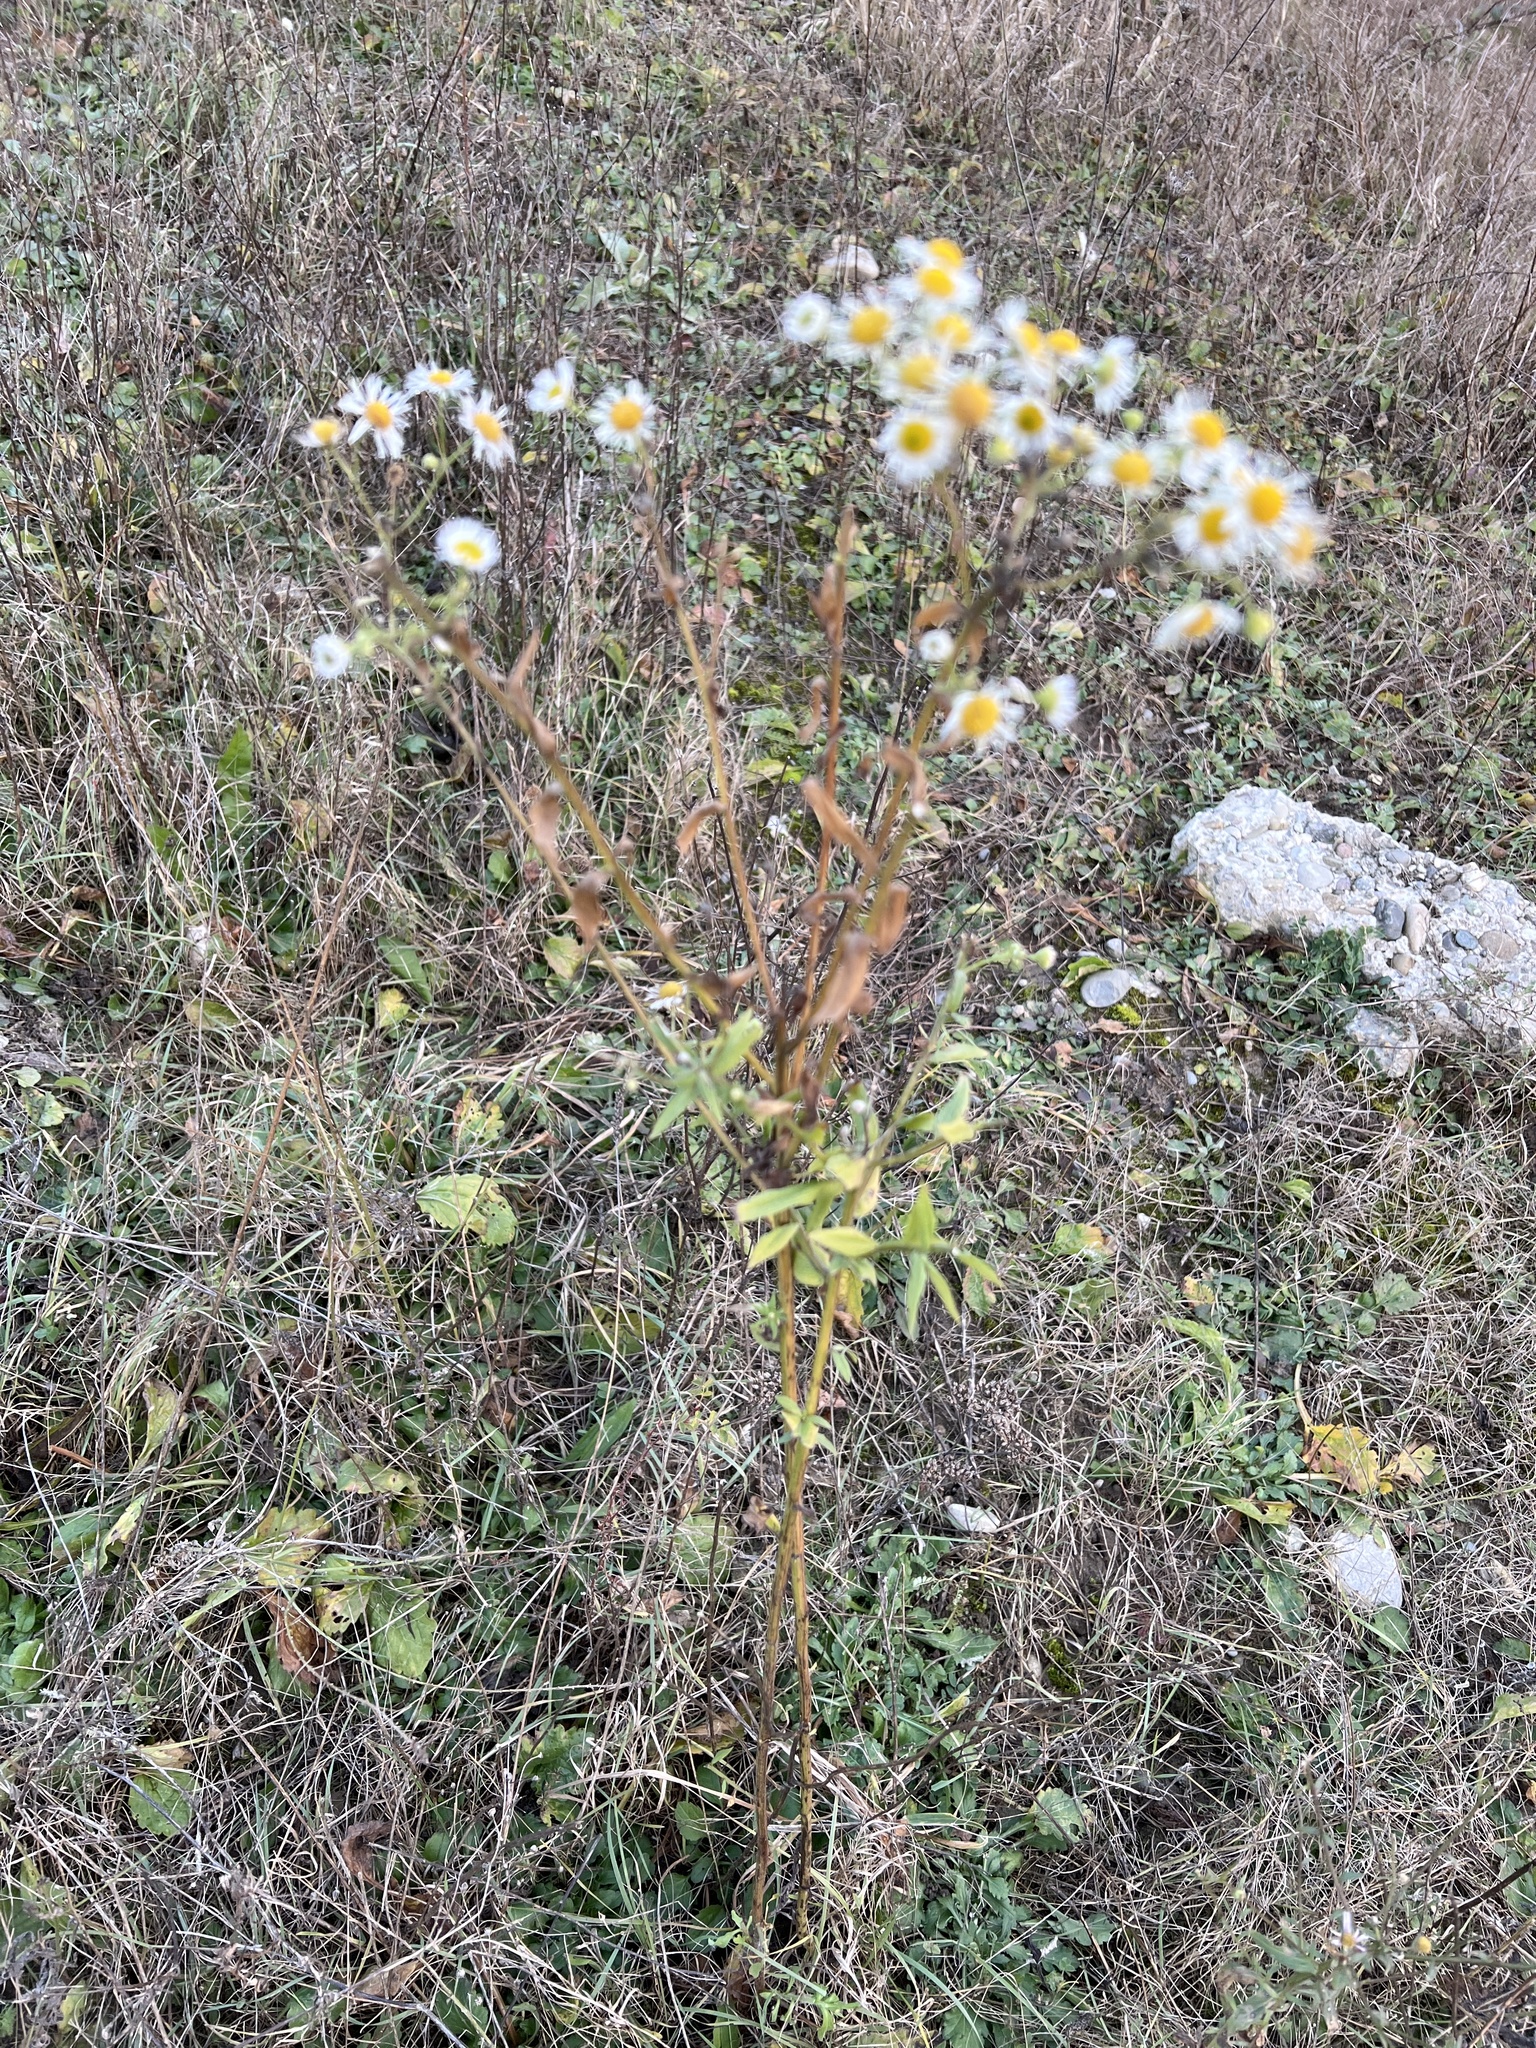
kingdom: Plantae
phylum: Tracheophyta
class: Magnoliopsida
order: Asterales
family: Asteraceae
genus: Erigeron
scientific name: Erigeron annuus
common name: Tall fleabane
